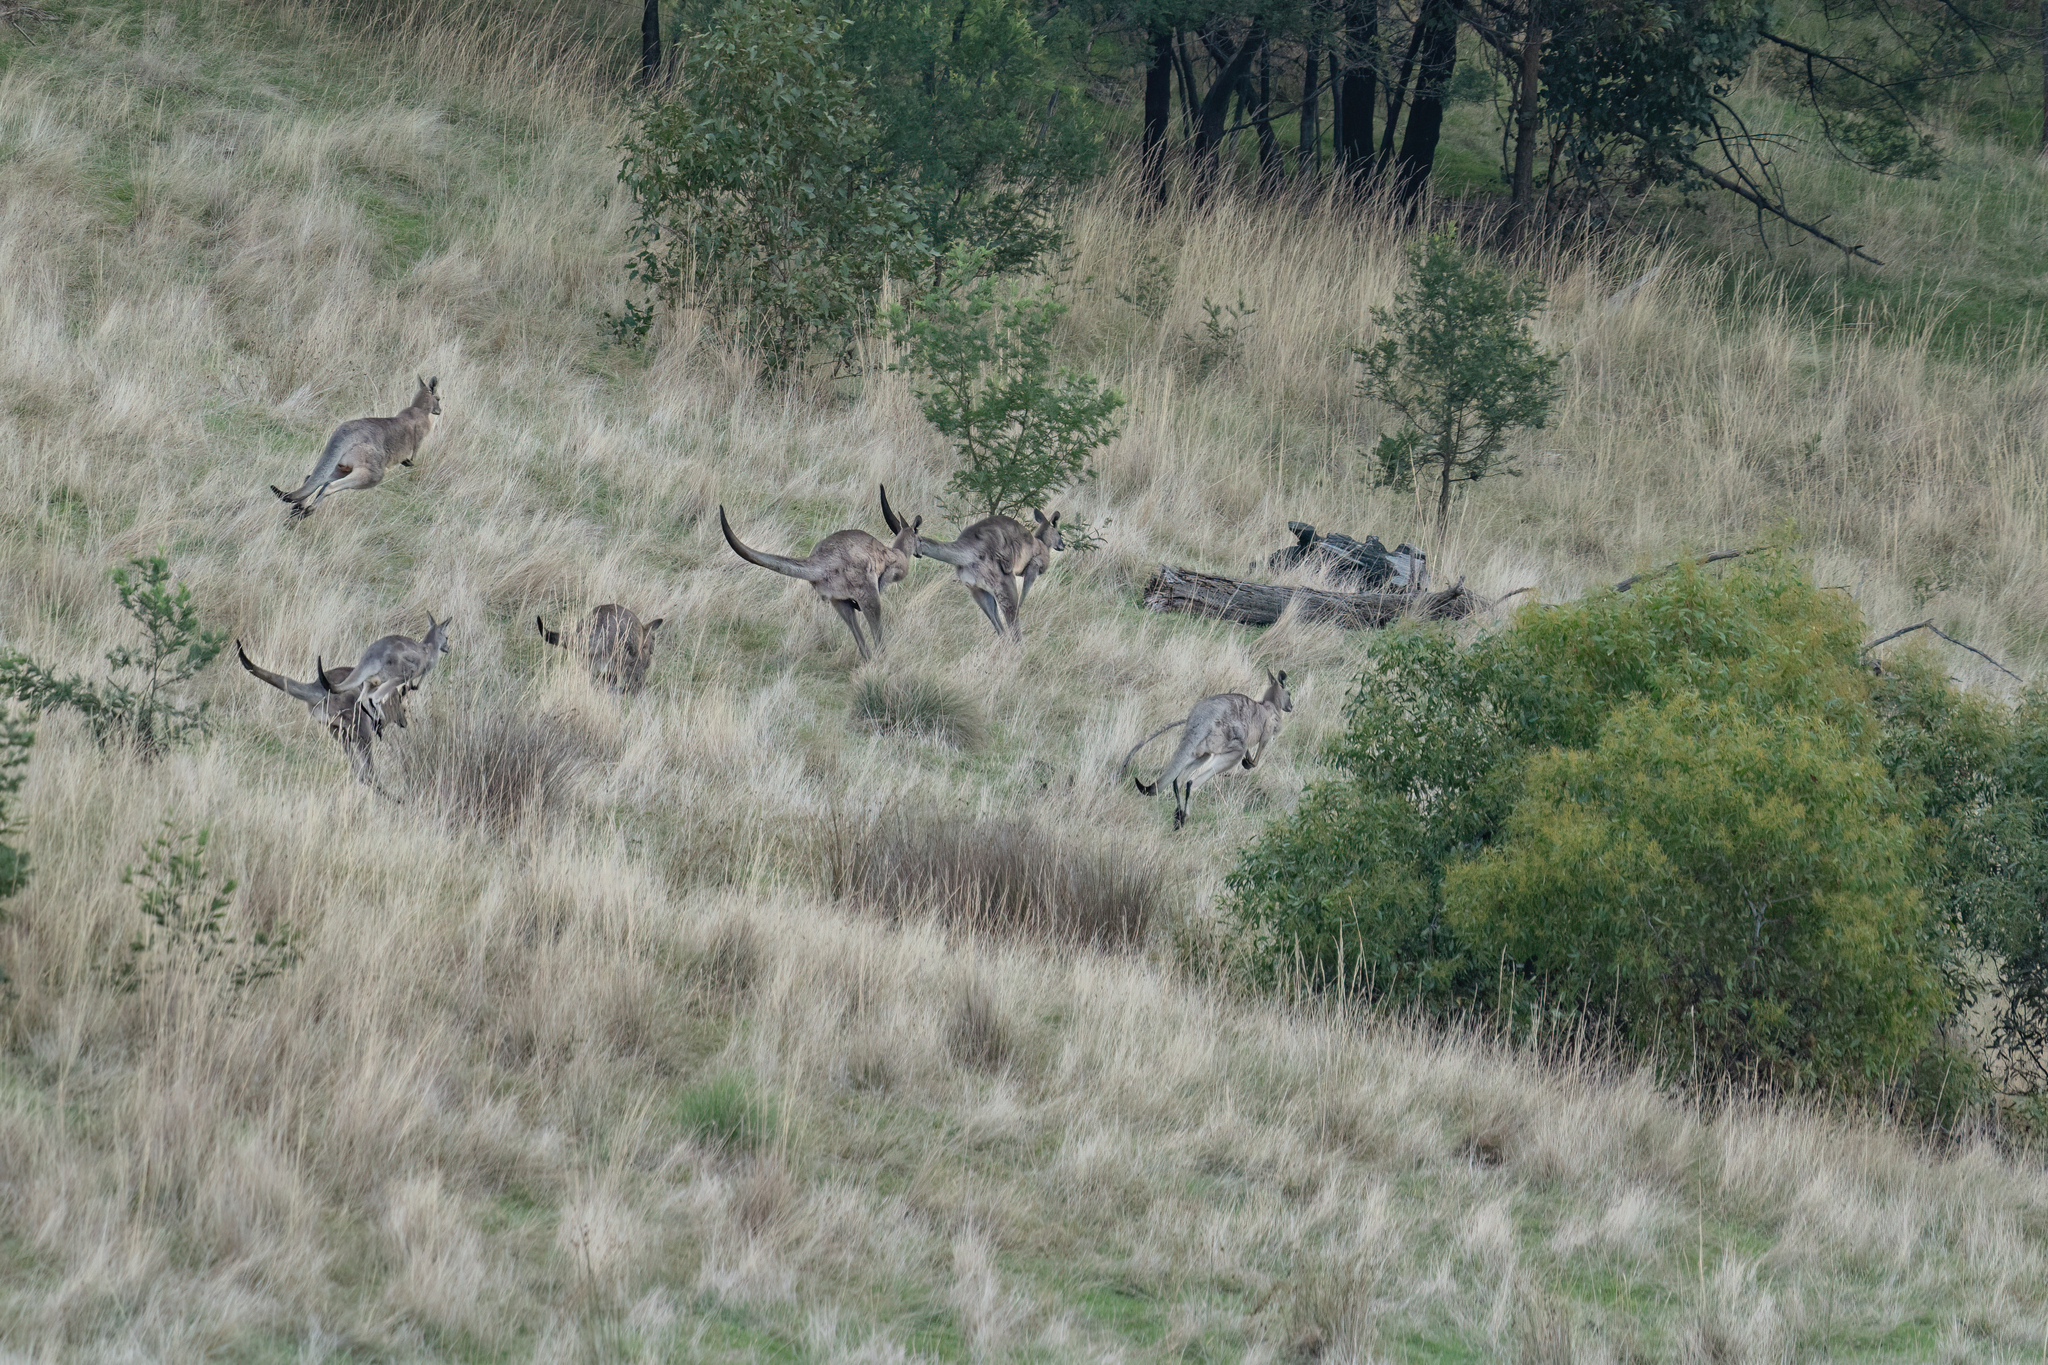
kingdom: Animalia
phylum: Chordata
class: Mammalia
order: Diprotodontia
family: Macropodidae
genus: Macropus
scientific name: Macropus giganteus
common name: Eastern grey kangaroo
